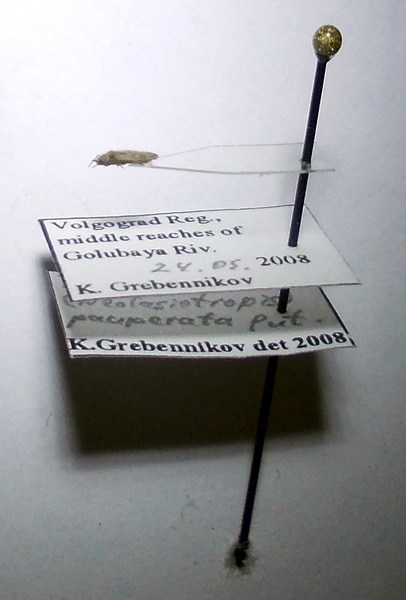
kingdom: Animalia
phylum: Arthropoda
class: Insecta
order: Hemiptera
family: Tingidae
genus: Tingis
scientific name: Tingis pauperata
